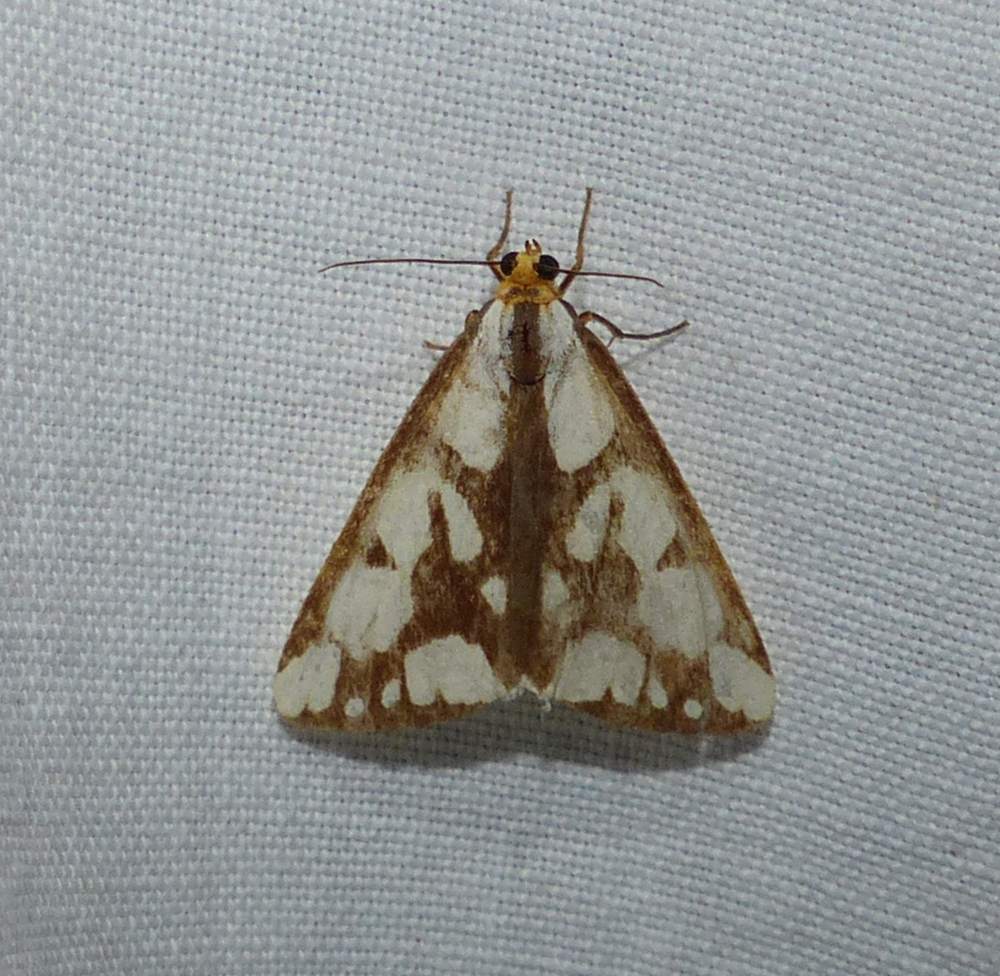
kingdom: Animalia
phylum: Arthropoda
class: Insecta
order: Lepidoptera
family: Erebidae
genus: Haploa
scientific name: Haploa confusa
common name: Confused haploa moth
